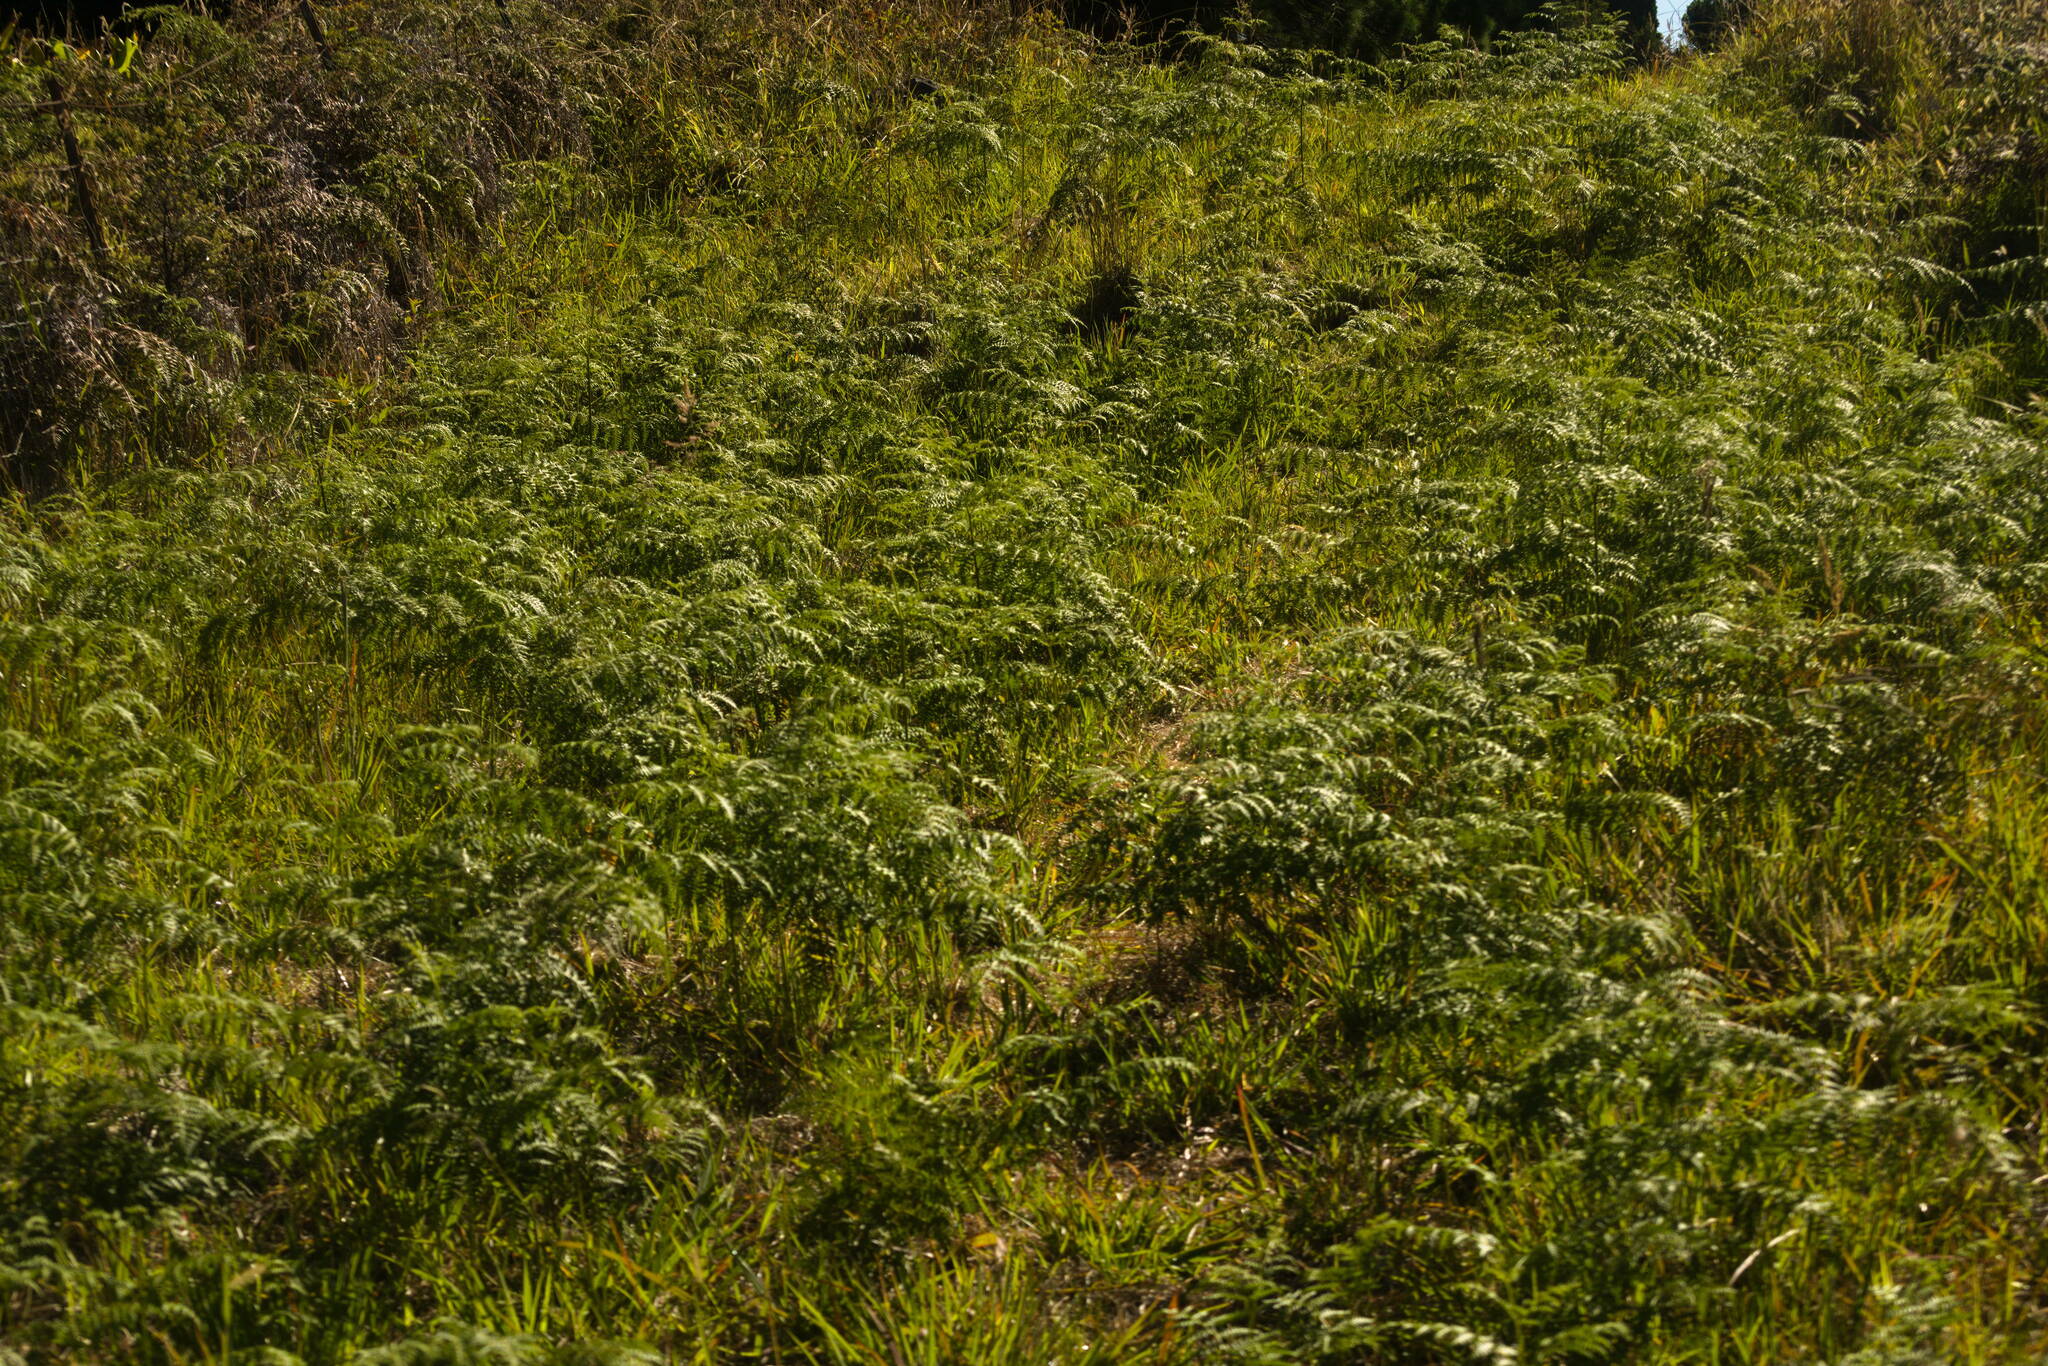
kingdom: Plantae
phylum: Tracheophyta
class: Polypodiopsida
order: Polypodiales
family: Dennstaedtiaceae
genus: Pteridium
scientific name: Pteridium aquilinum
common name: Bracken
